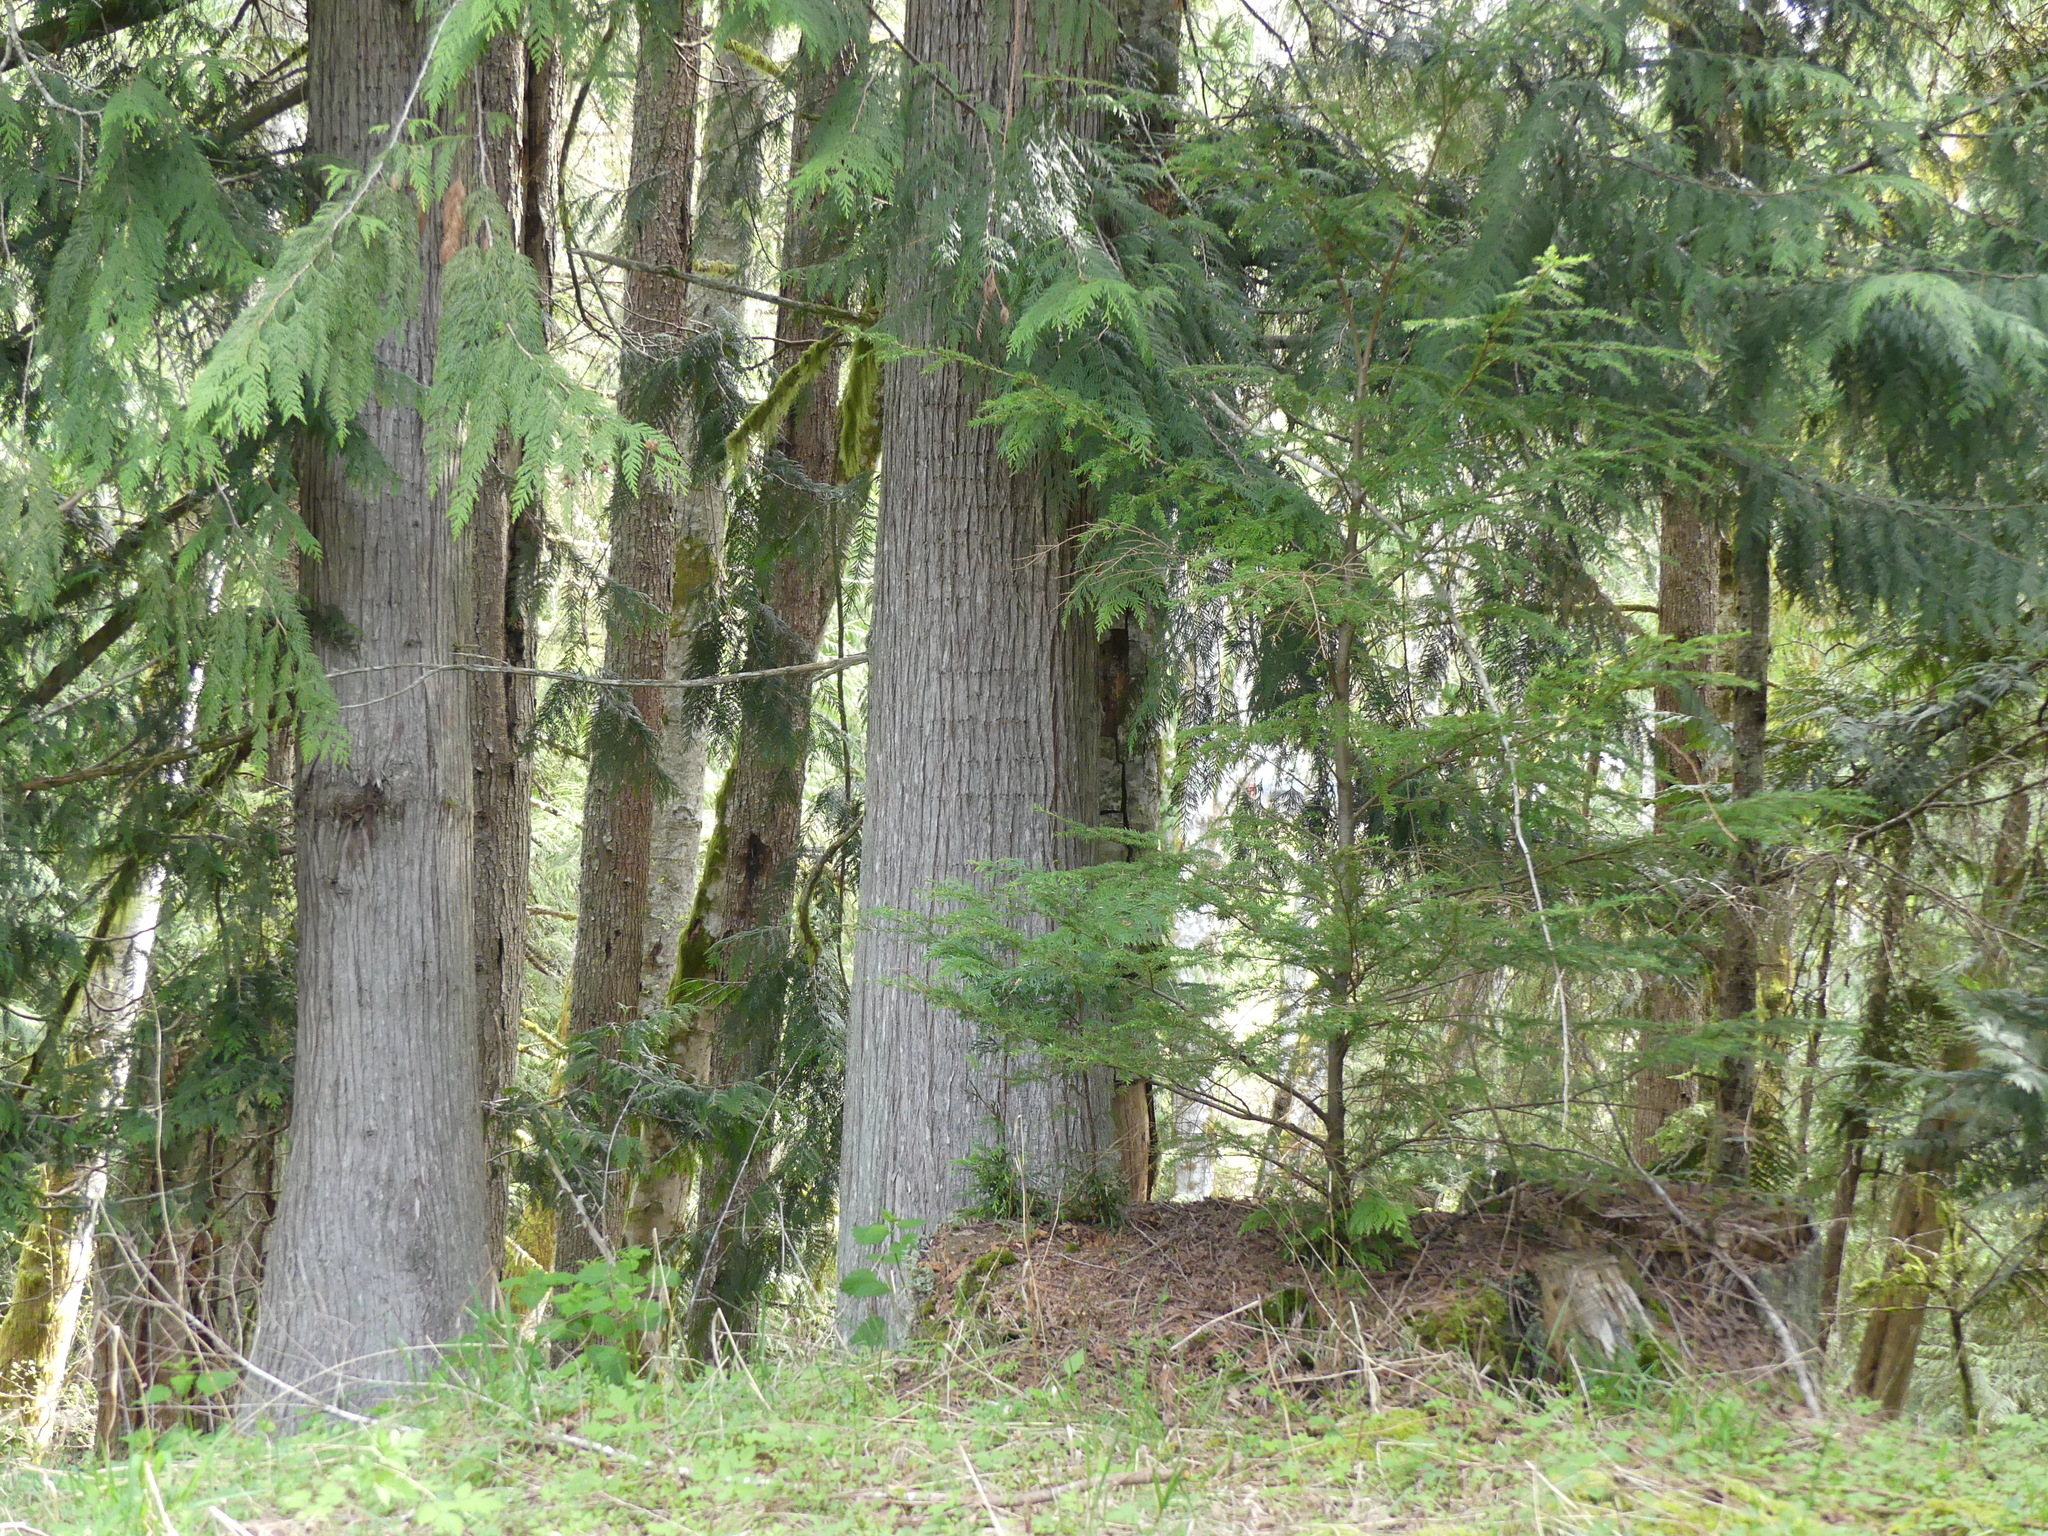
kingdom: Plantae
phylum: Tracheophyta
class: Pinopsida
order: Pinales
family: Cupressaceae
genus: Thuja
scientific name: Thuja plicata
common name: Western red-cedar
